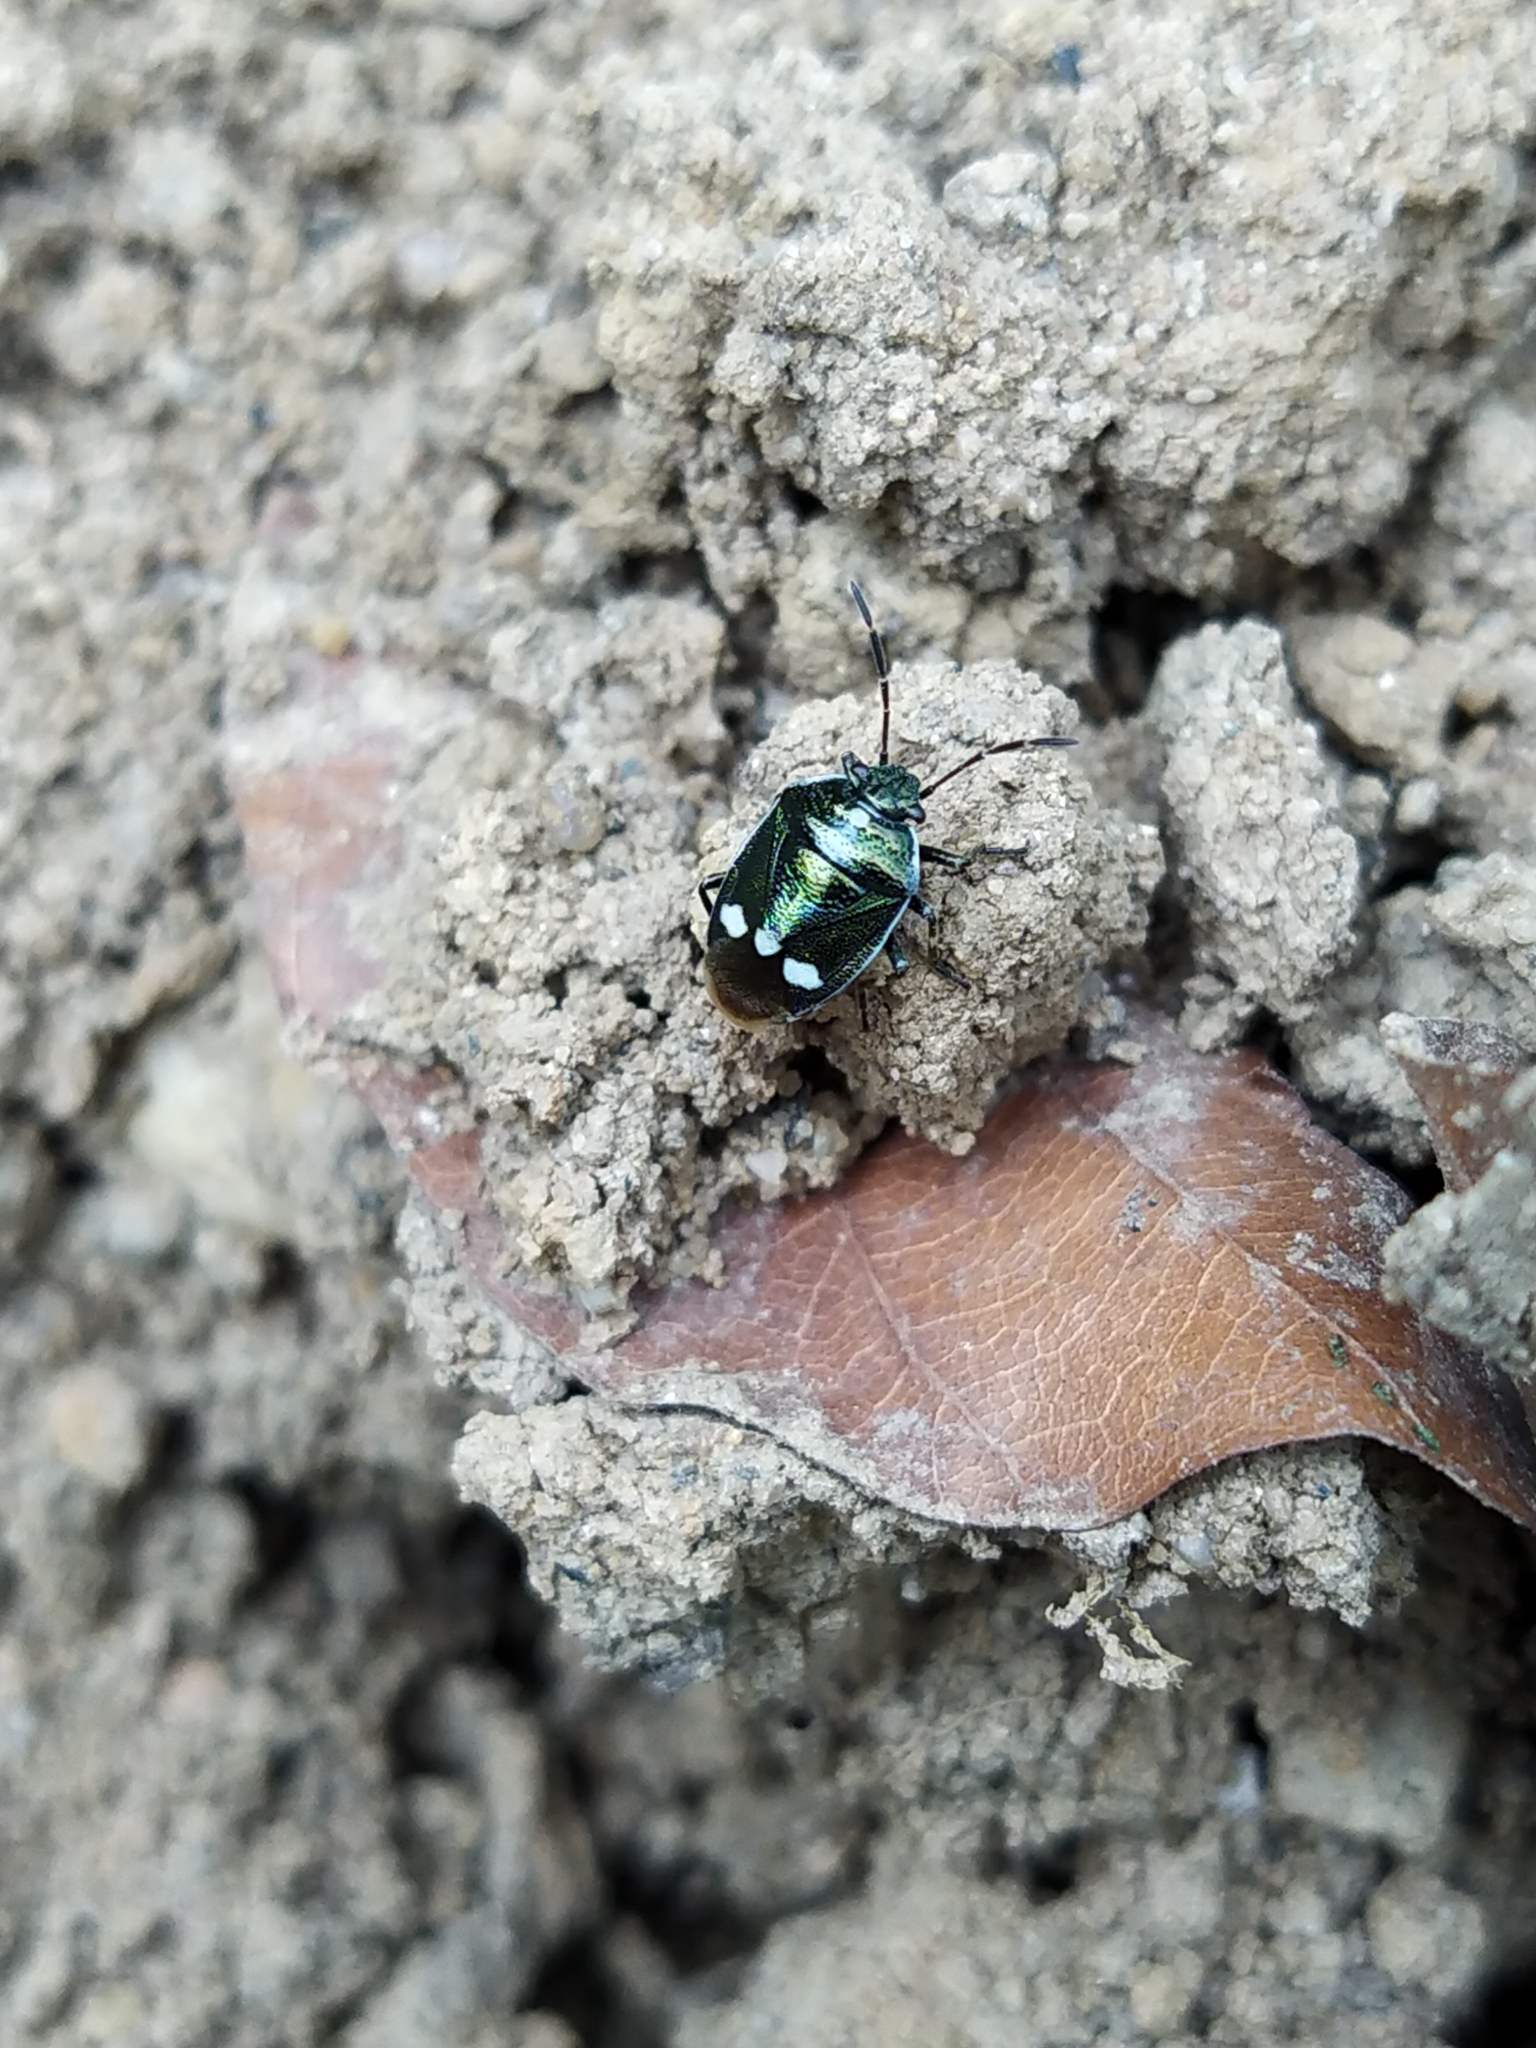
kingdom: Animalia
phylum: Arthropoda
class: Insecta
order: Hemiptera
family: Pentatomidae
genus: Eurydema
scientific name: Eurydema oleracea
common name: Cabbage bug
